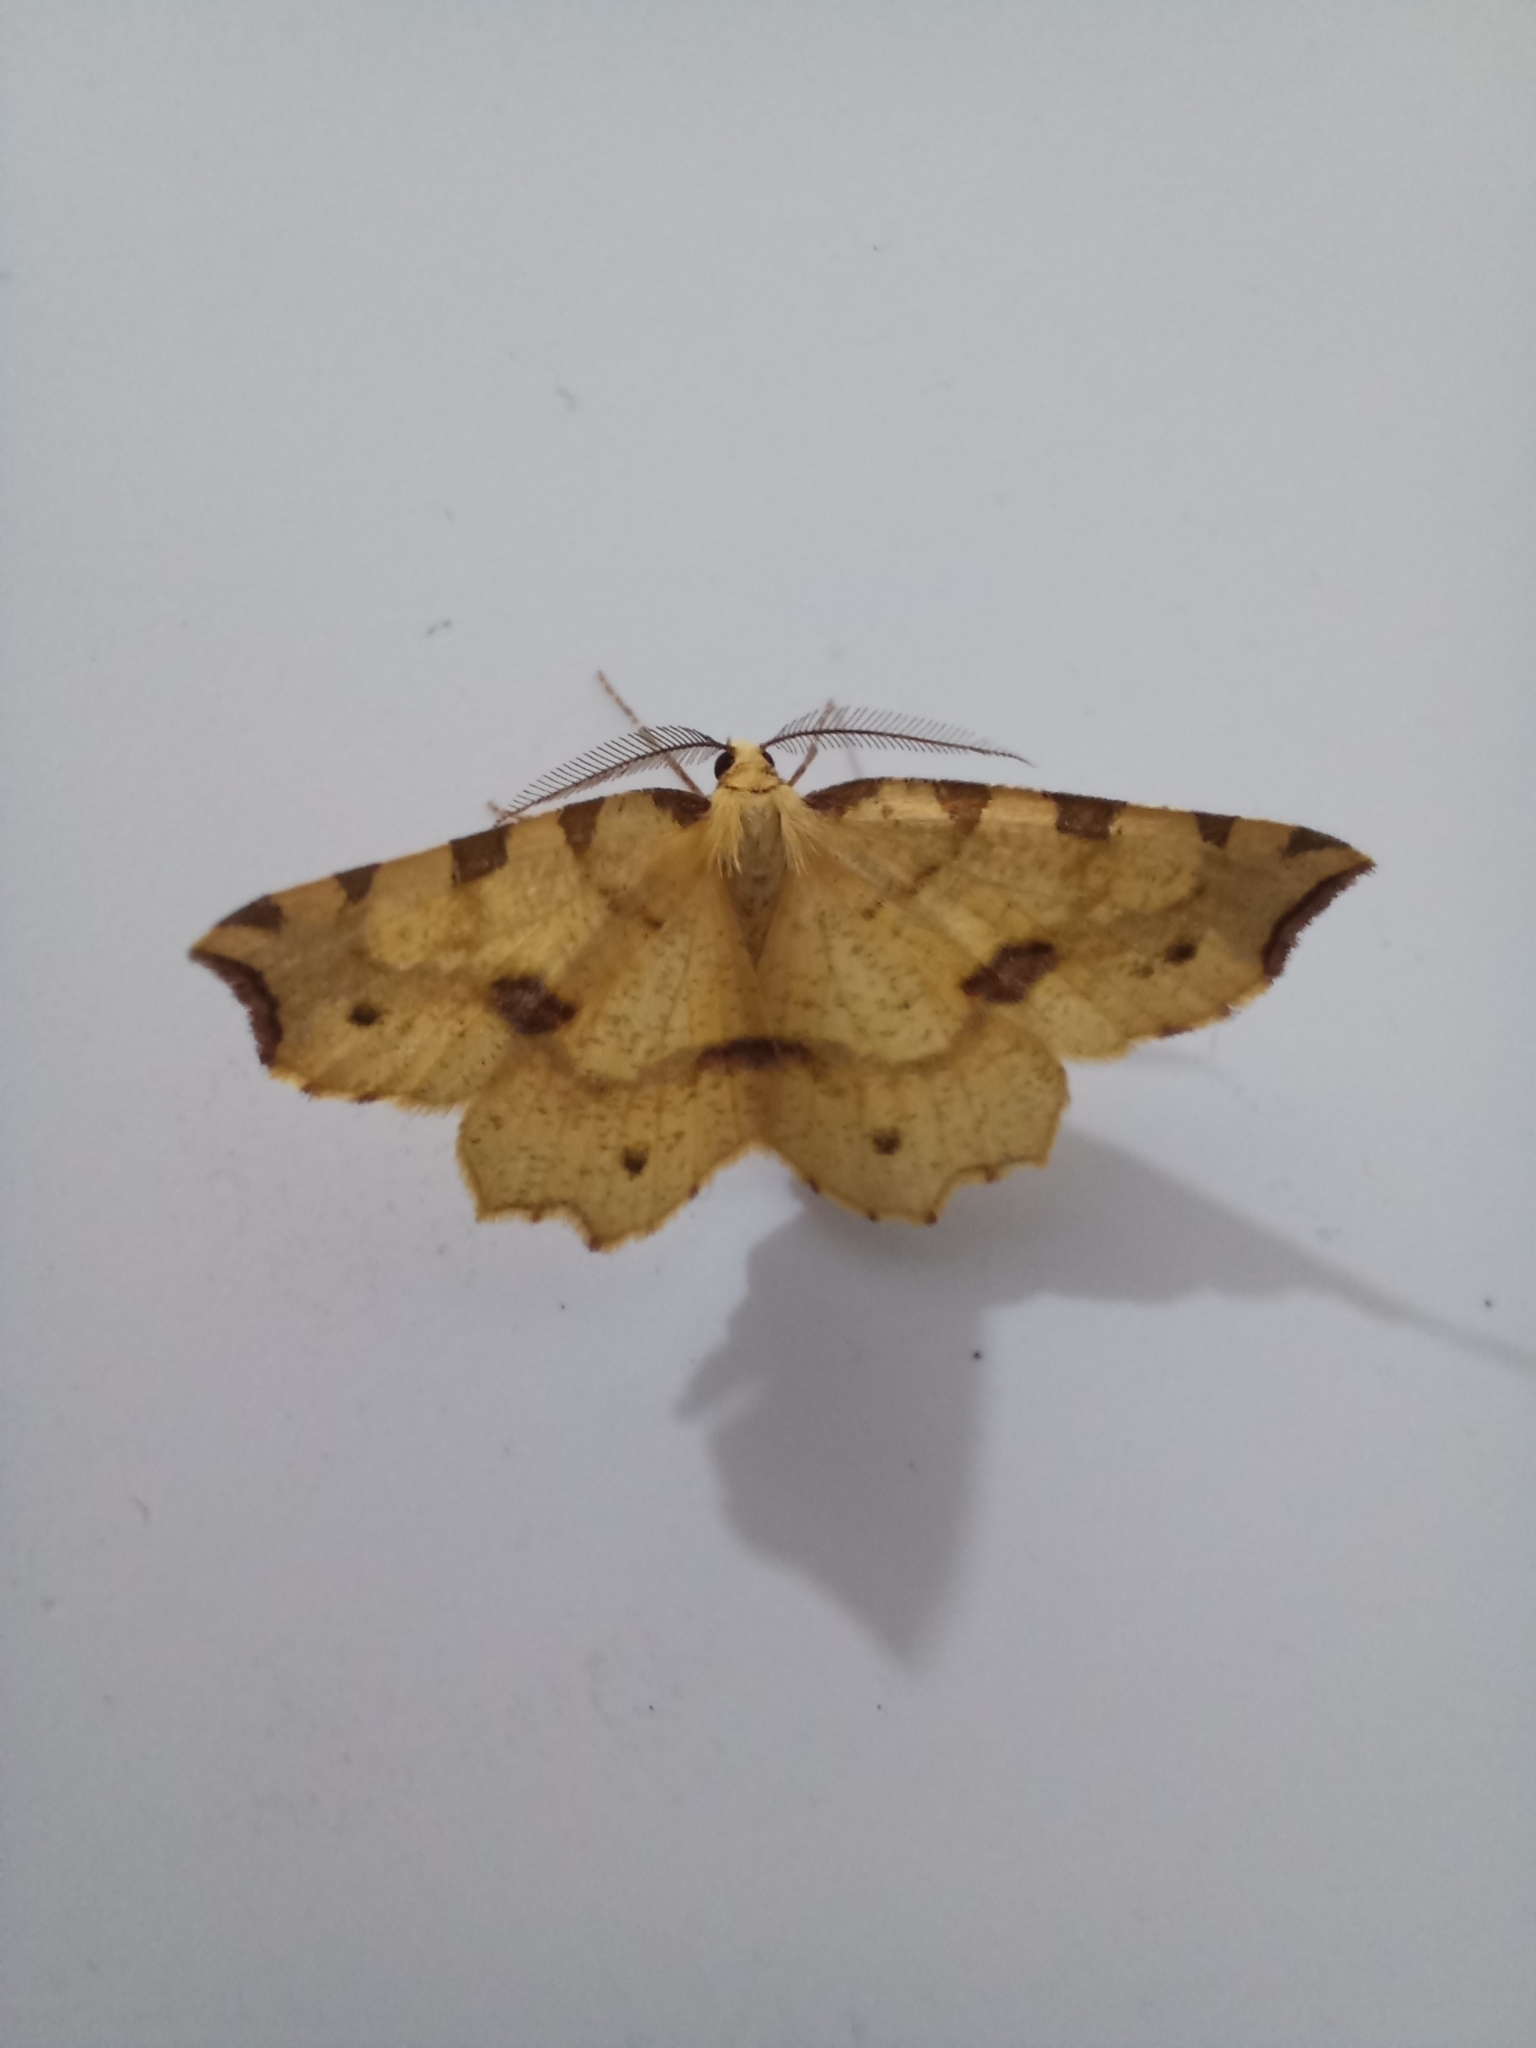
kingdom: Animalia
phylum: Arthropoda
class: Insecta
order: Lepidoptera
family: Geometridae
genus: Therapis
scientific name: Therapis flavicaria
